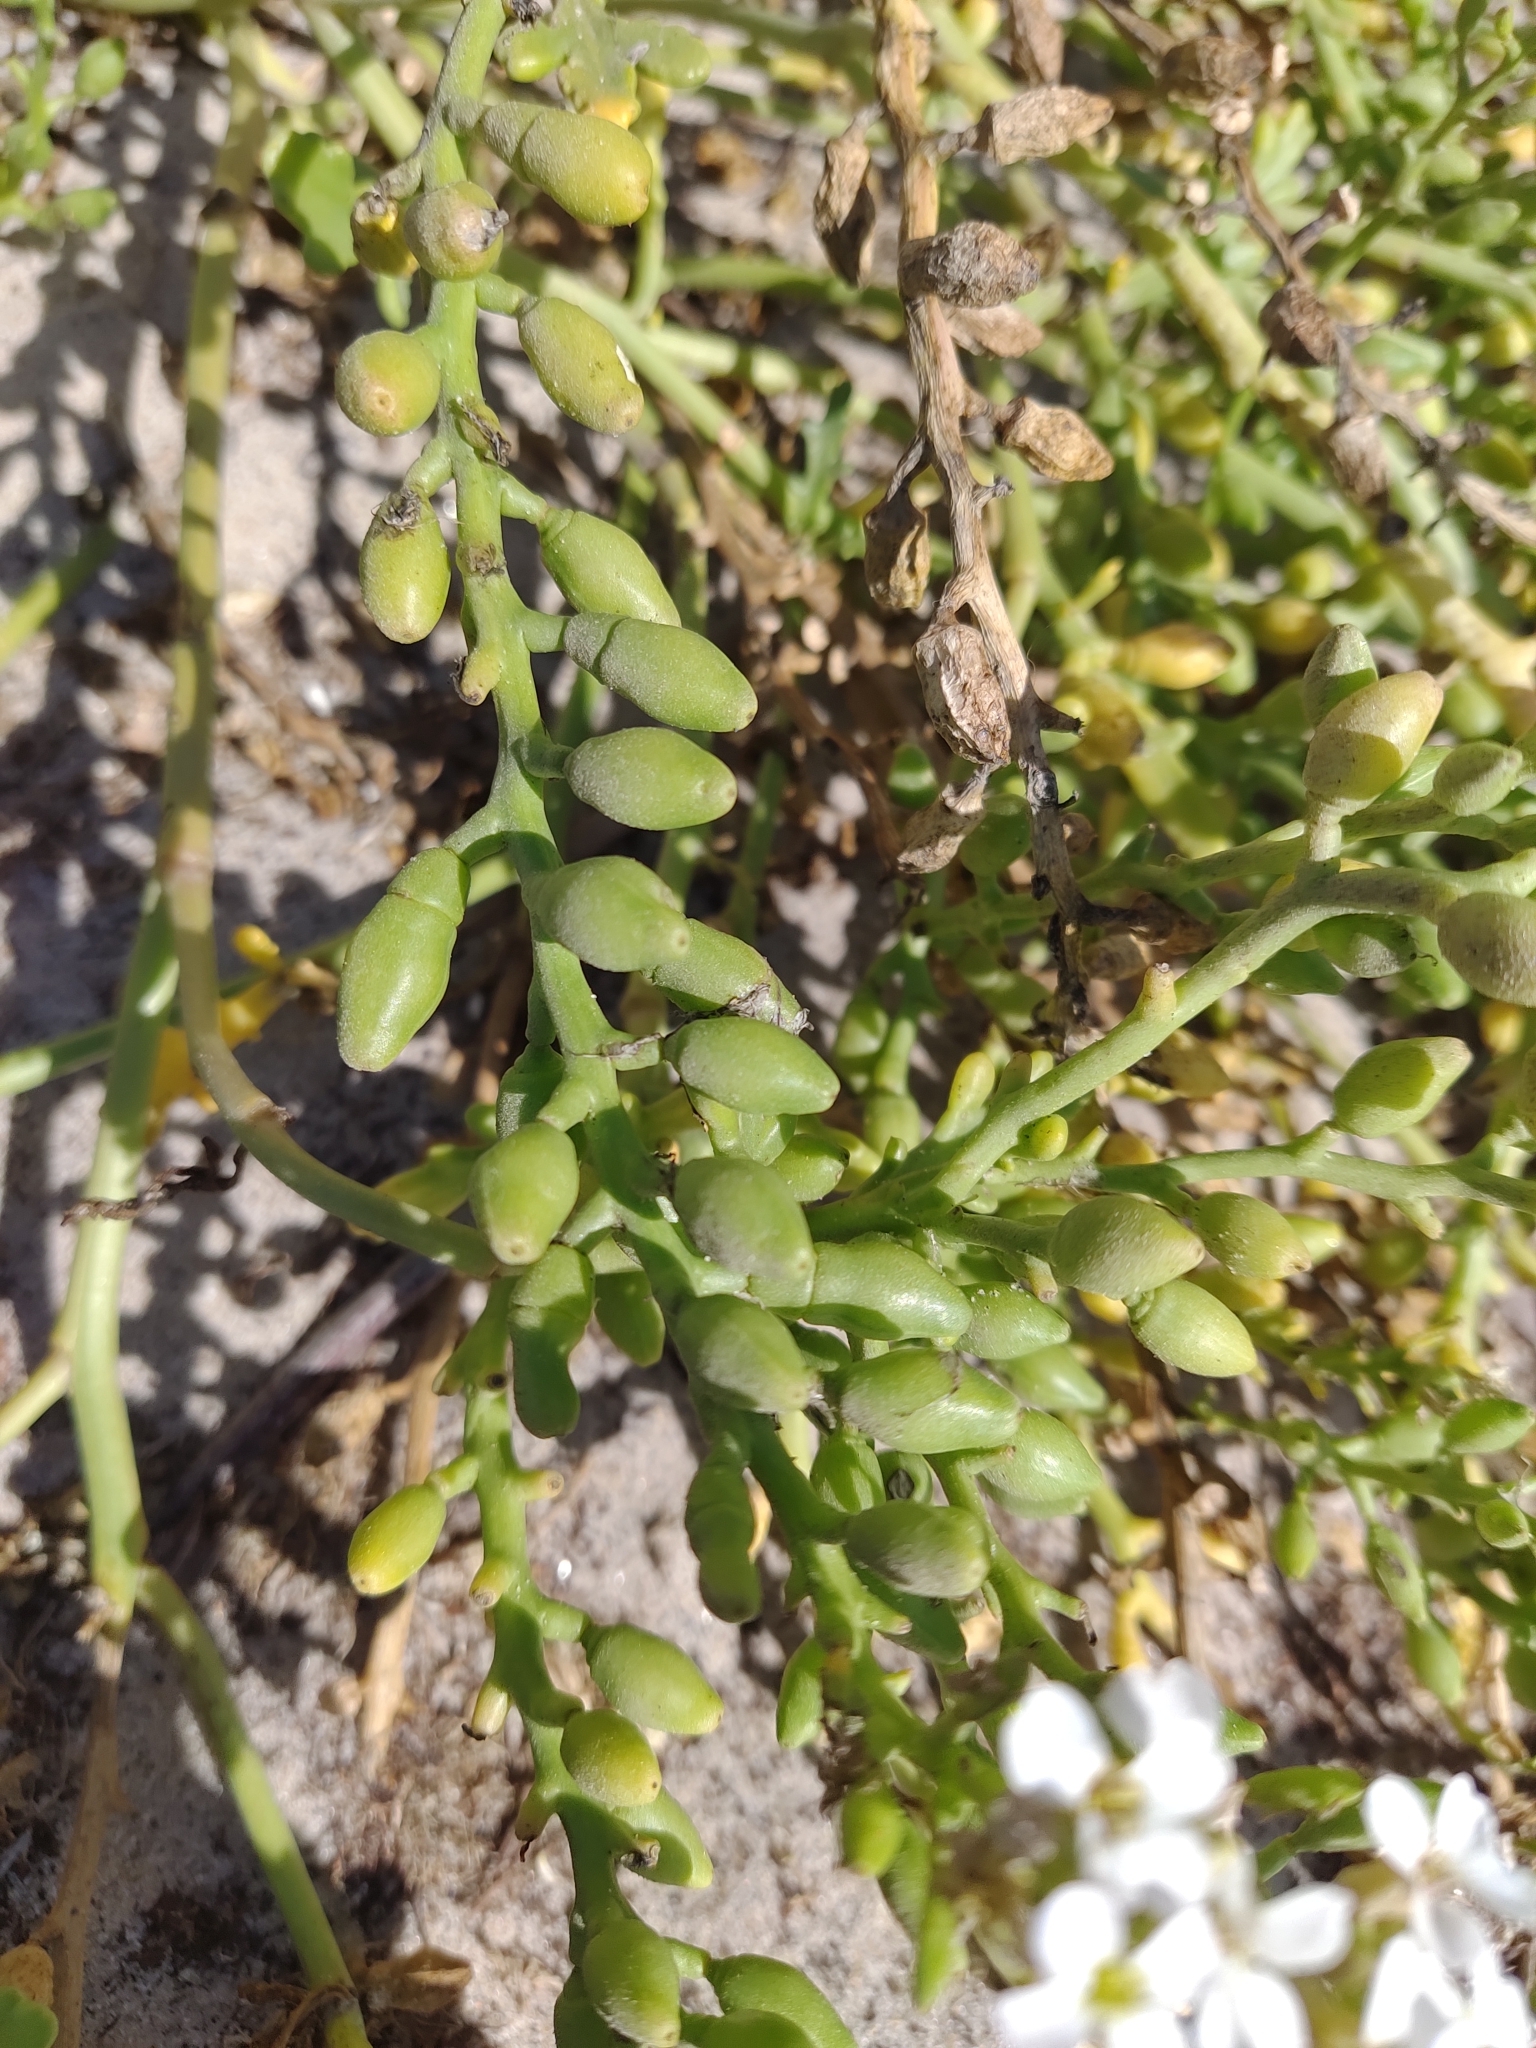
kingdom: Plantae
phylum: Tracheophyta
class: Magnoliopsida
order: Brassicales
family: Brassicaceae
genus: Cakile
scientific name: Cakile maritima
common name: Sea rocket
